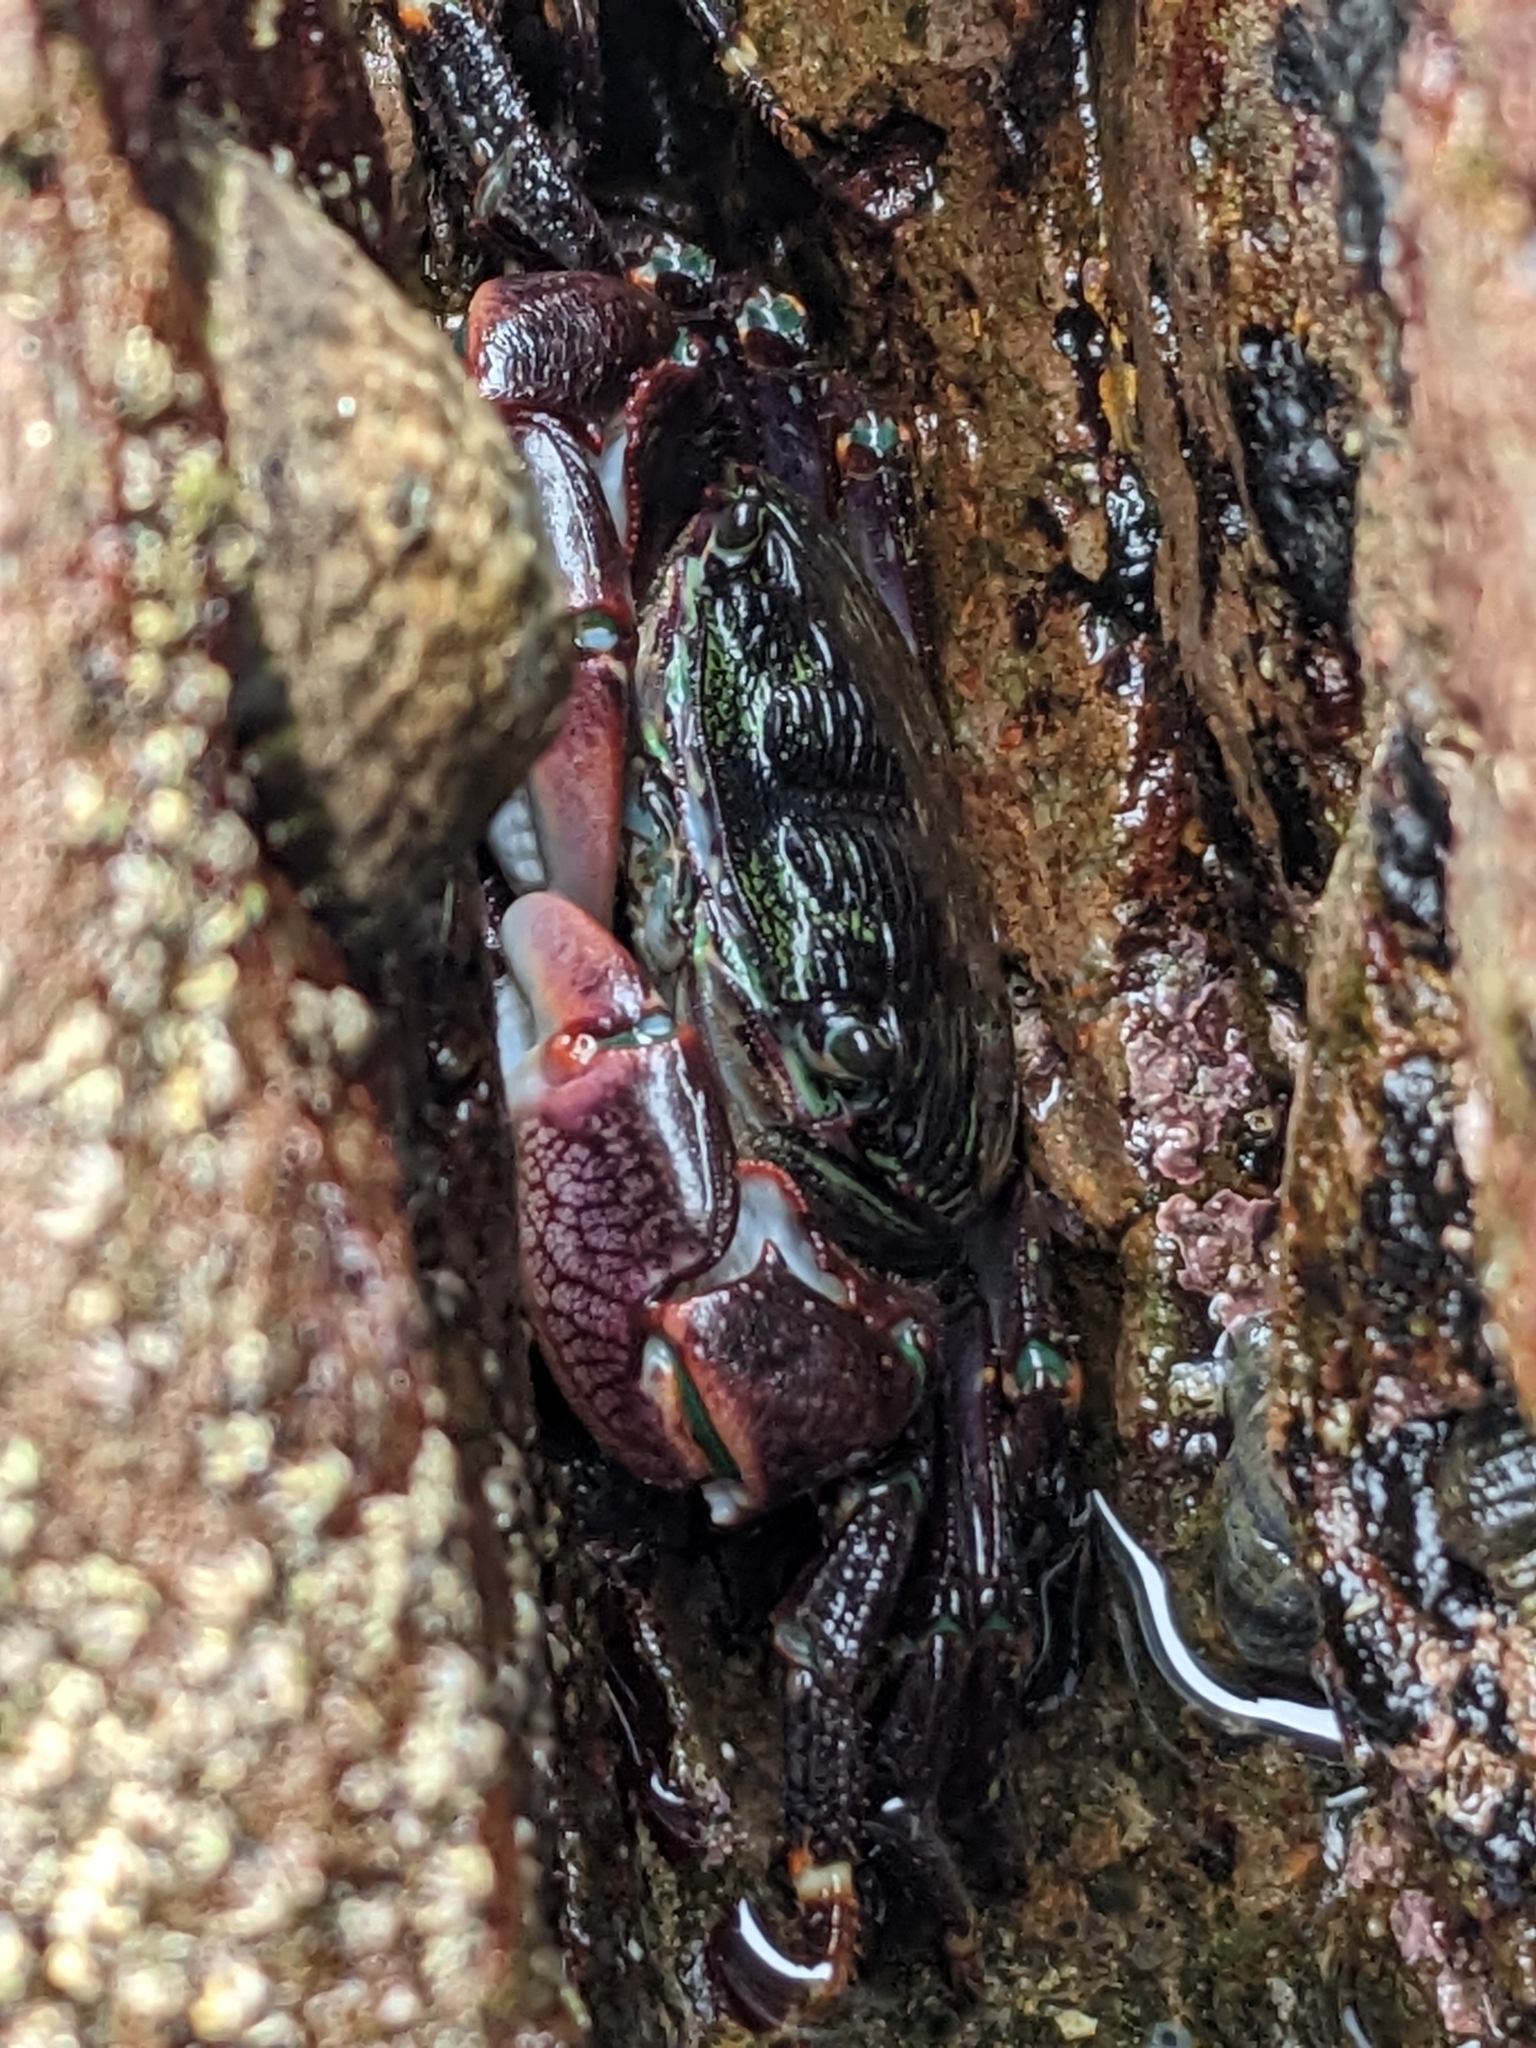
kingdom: Animalia
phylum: Arthropoda
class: Malacostraca
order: Decapoda
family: Grapsidae
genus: Pachygrapsus
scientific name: Pachygrapsus crassipes
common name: Striped shore crab
